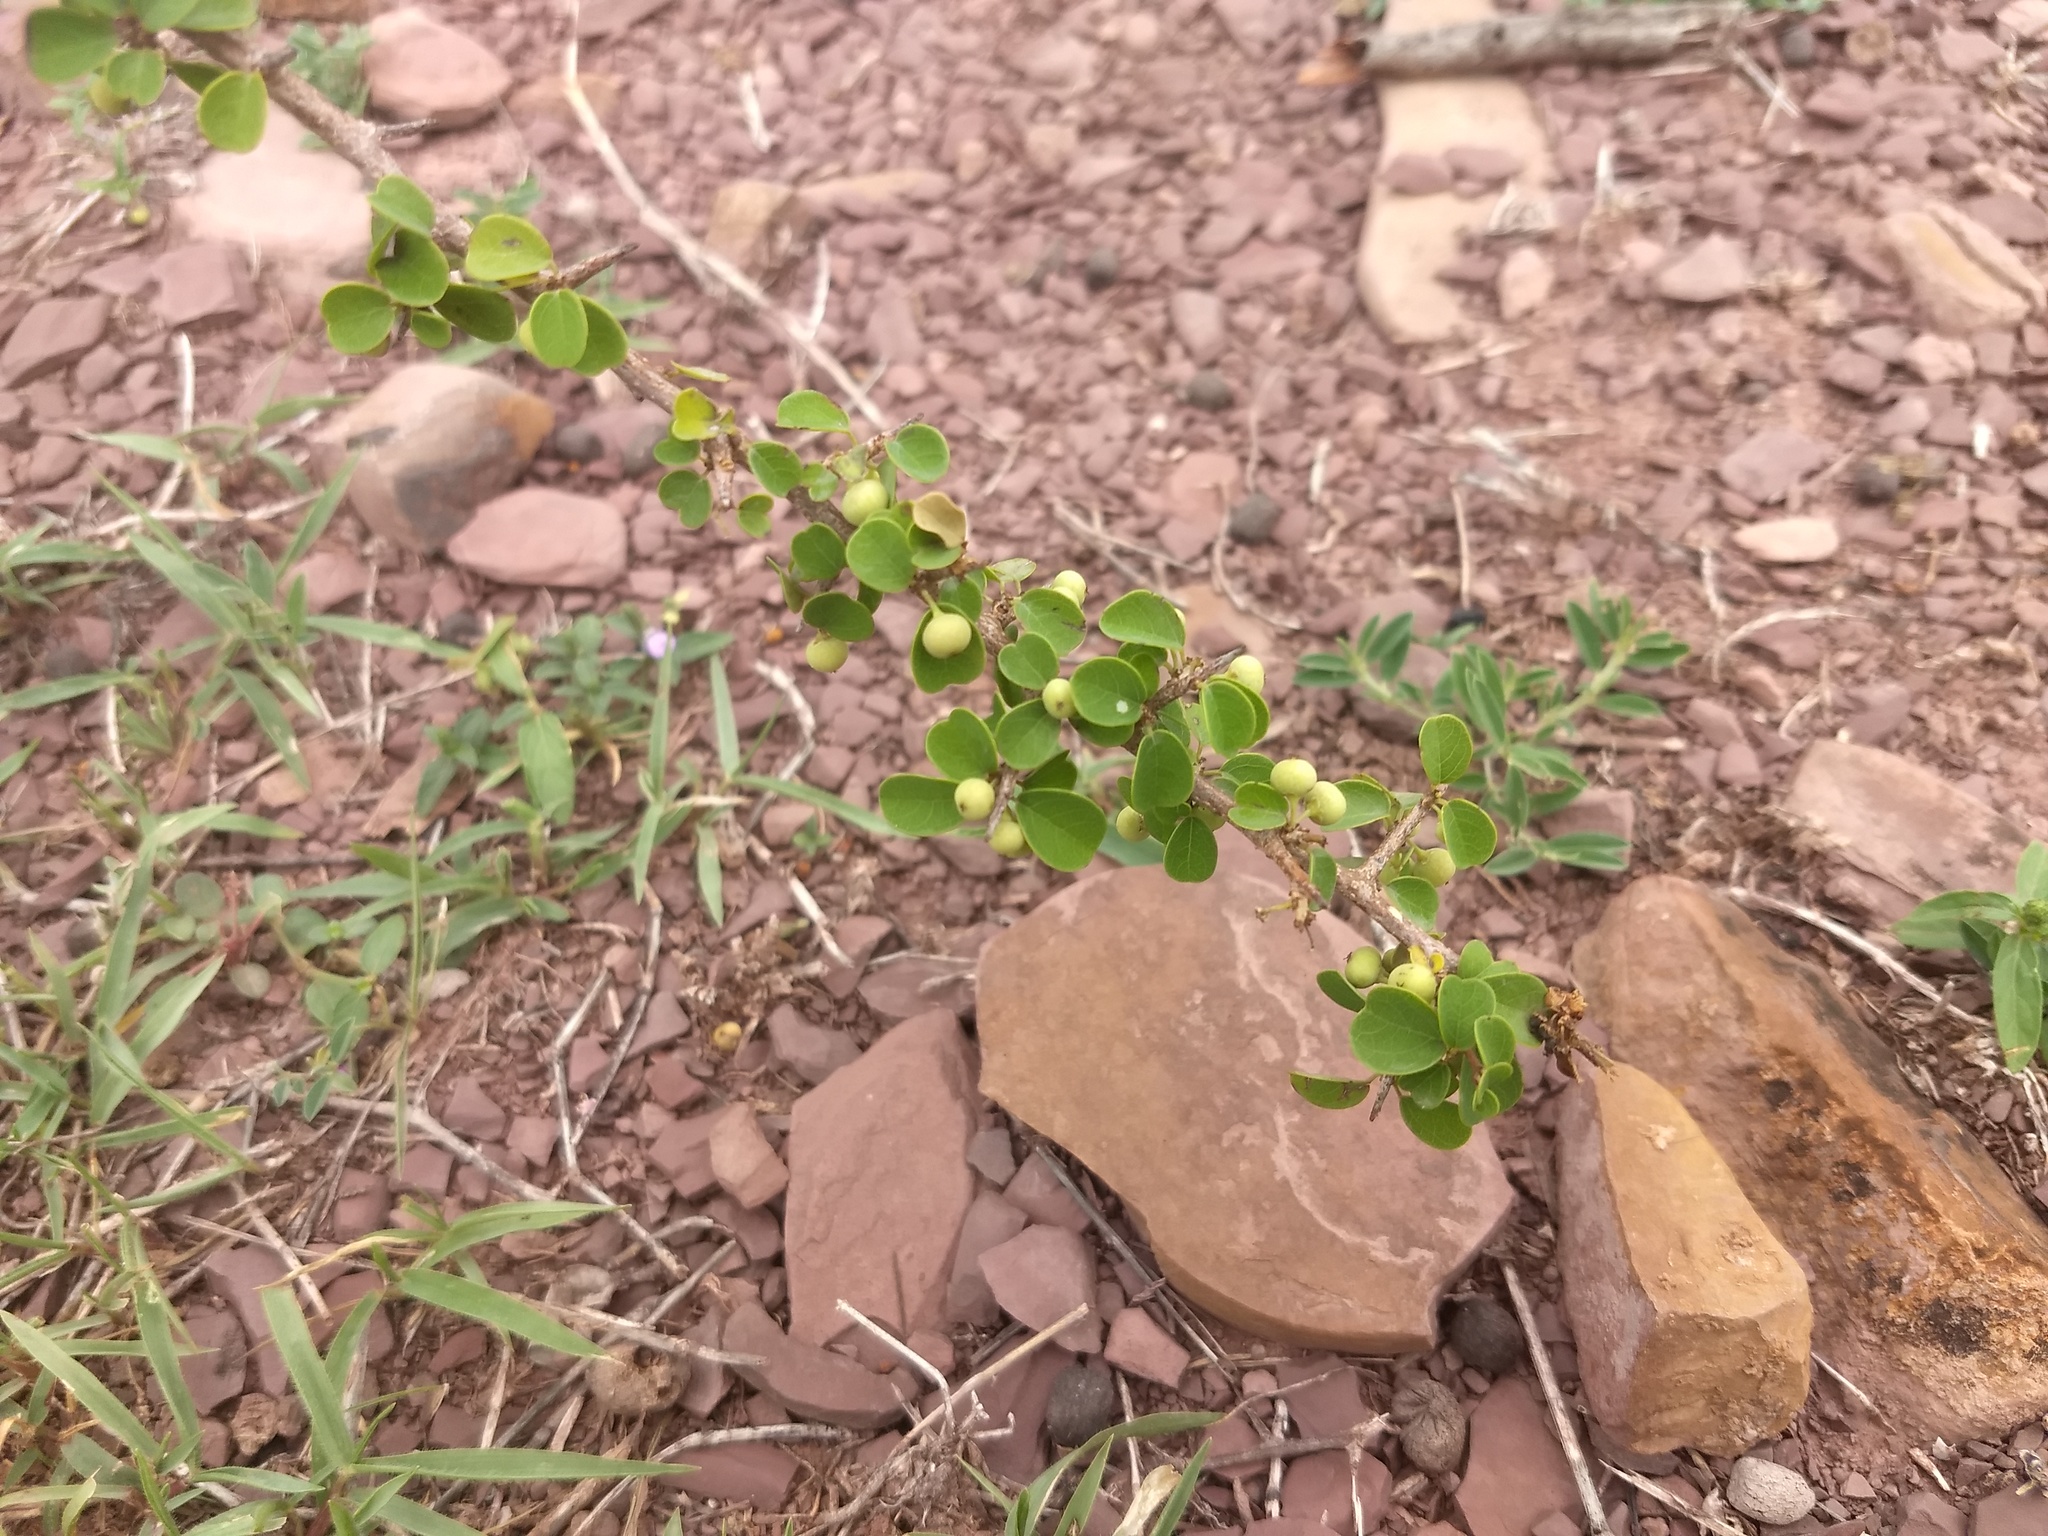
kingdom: Plantae
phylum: Tracheophyta
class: Magnoliopsida
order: Malpighiales
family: Phyllanthaceae
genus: Flueggea
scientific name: Flueggea leucopyrus
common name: Bushweed
